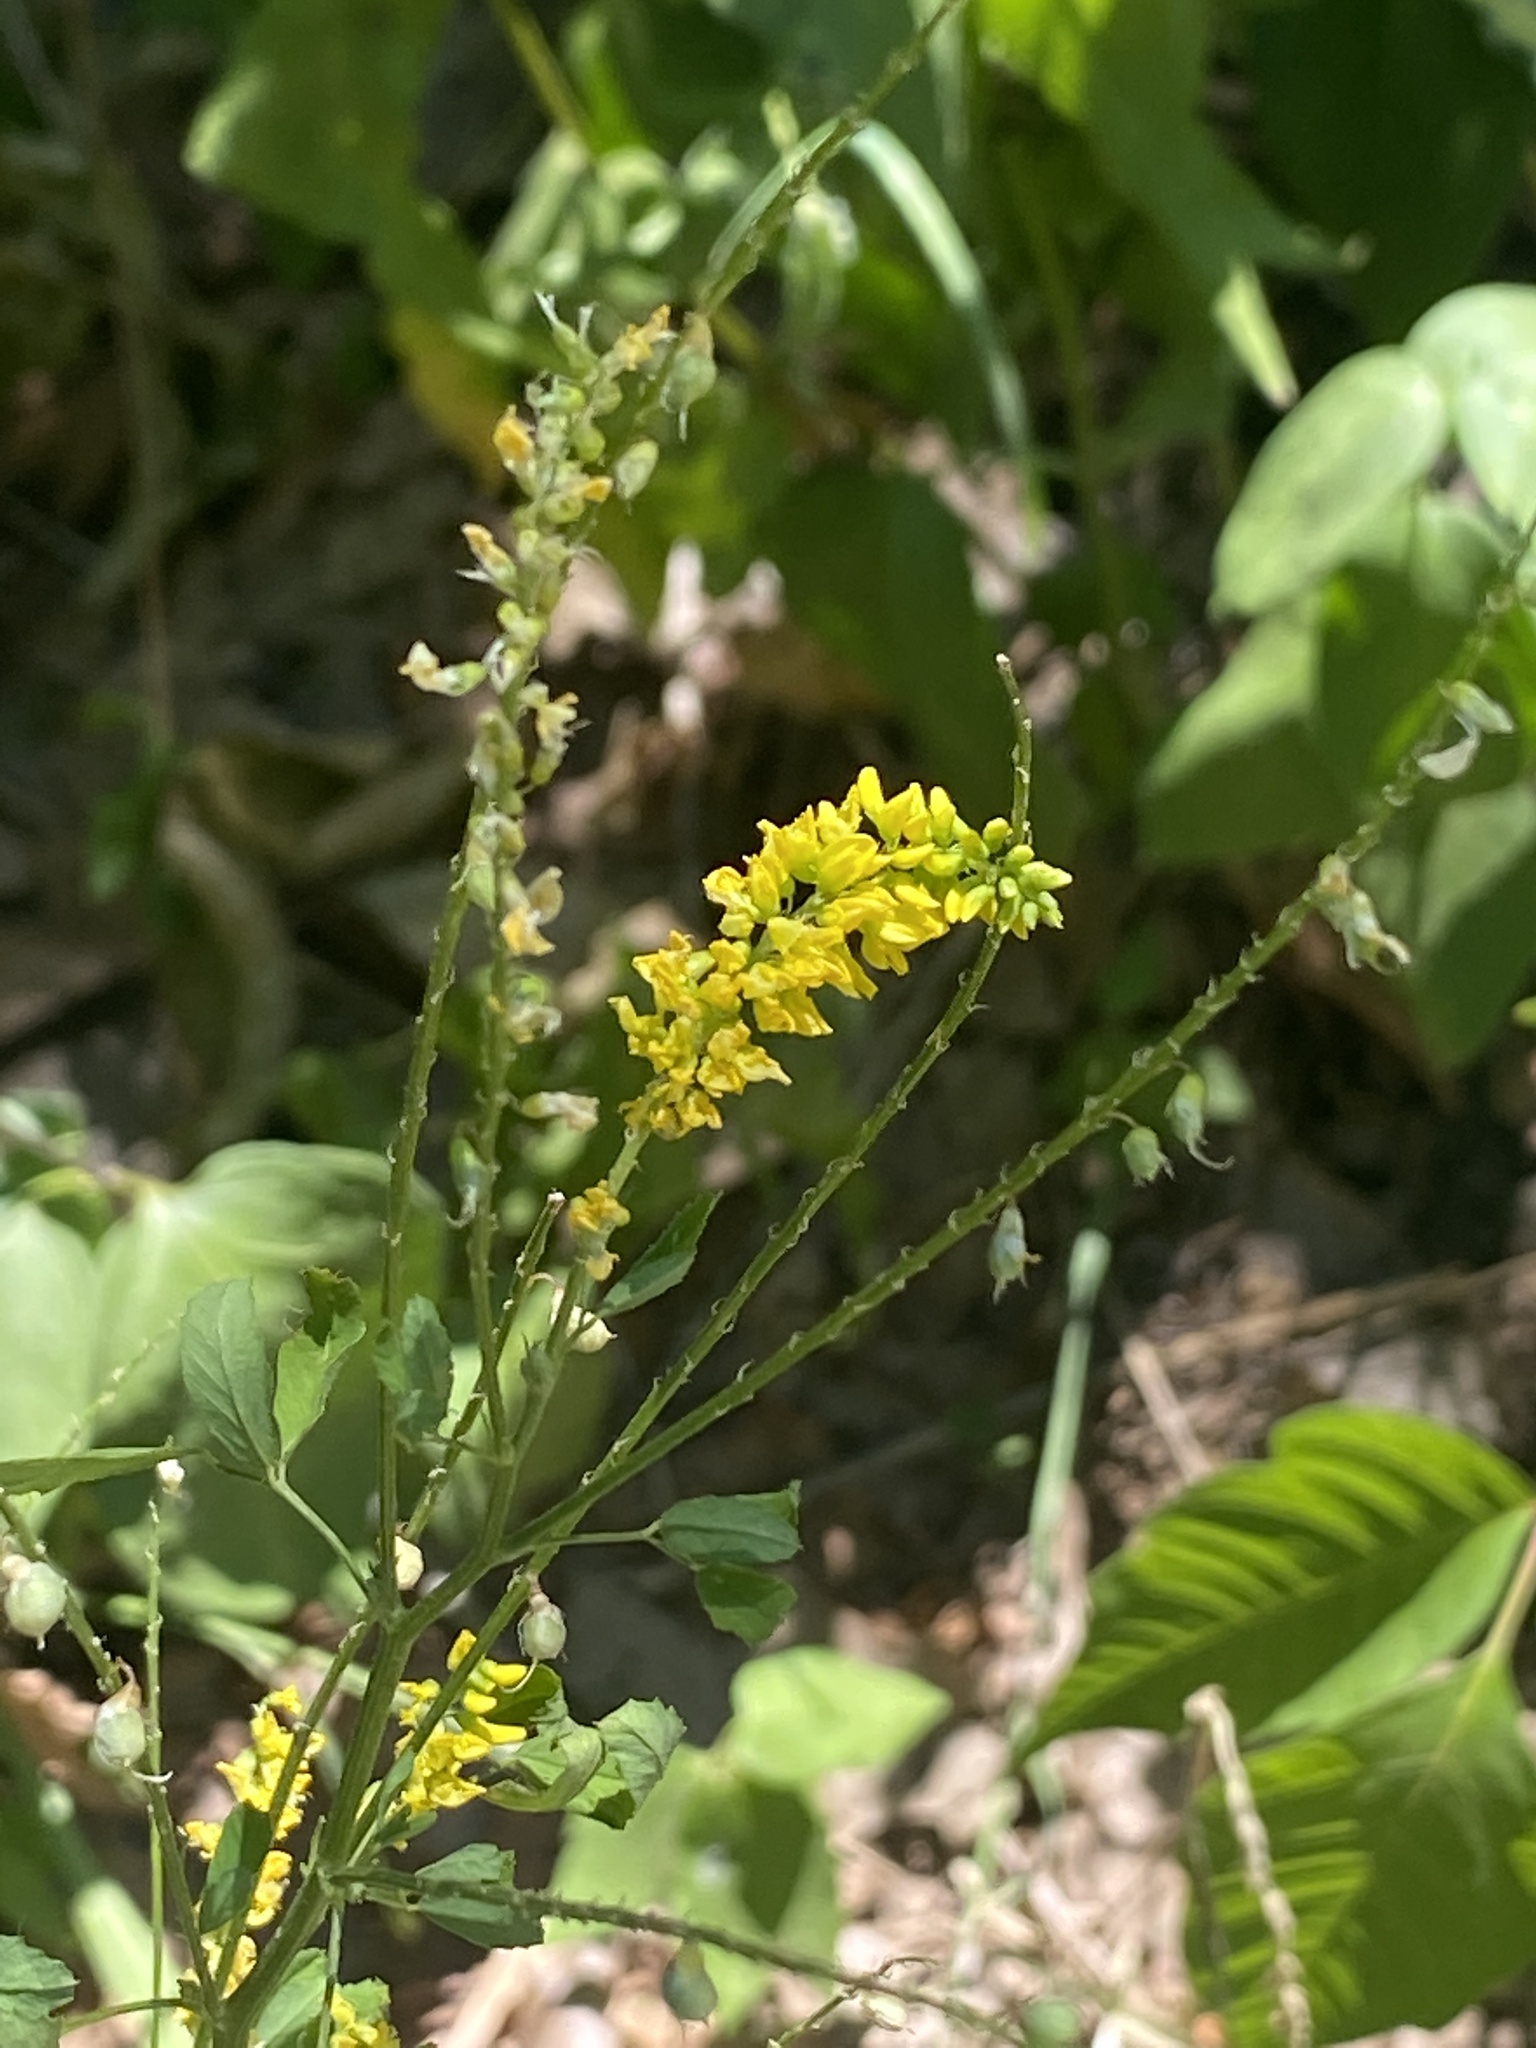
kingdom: Plantae
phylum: Tracheophyta
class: Magnoliopsida
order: Fabales
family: Fabaceae
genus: Melilotus
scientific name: Melilotus officinalis
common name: Sweetclover
